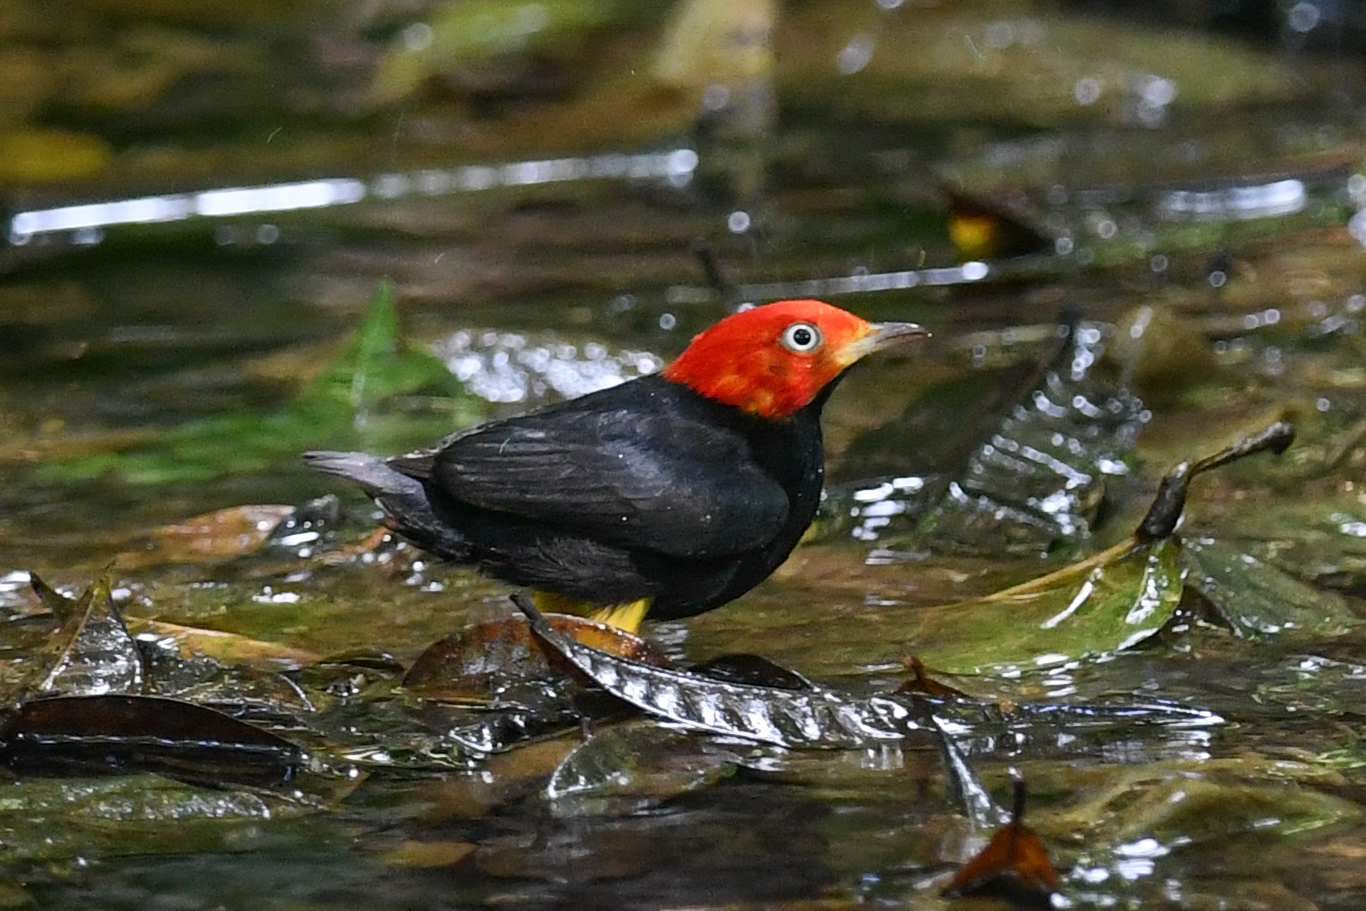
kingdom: Animalia
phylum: Chordata
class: Aves
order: Passeriformes
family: Pipridae
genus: Pipra
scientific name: Pipra mentalis
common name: Red-capped manakin
